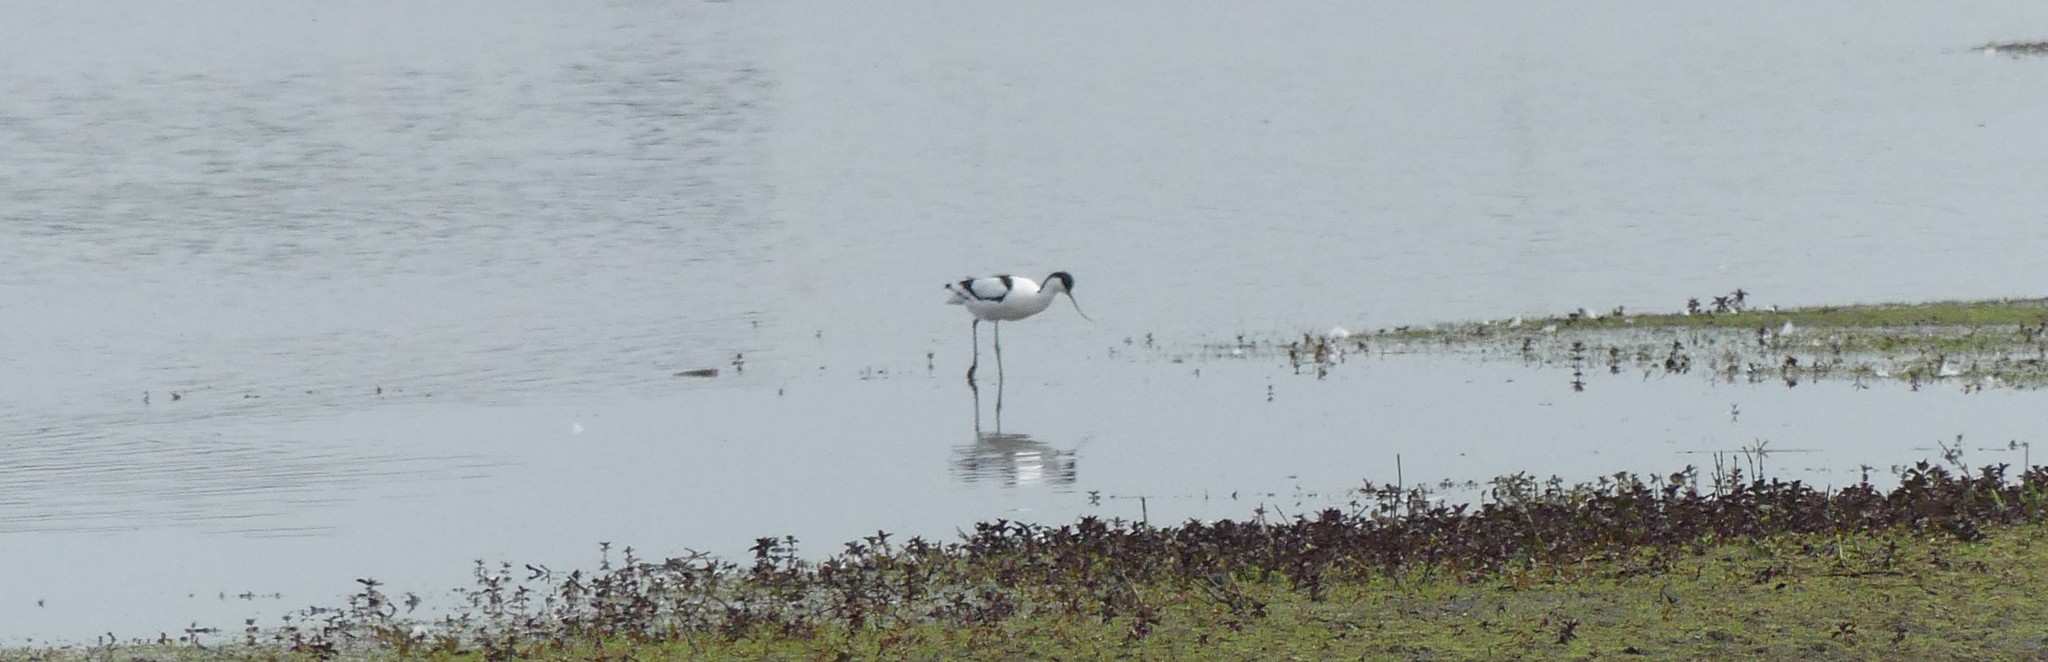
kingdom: Animalia
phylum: Chordata
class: Aves
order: Charadriiformes
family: Recurvirostridae
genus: Recurvirostra
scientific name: Recurvirostra avosetta
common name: Pied avocet
